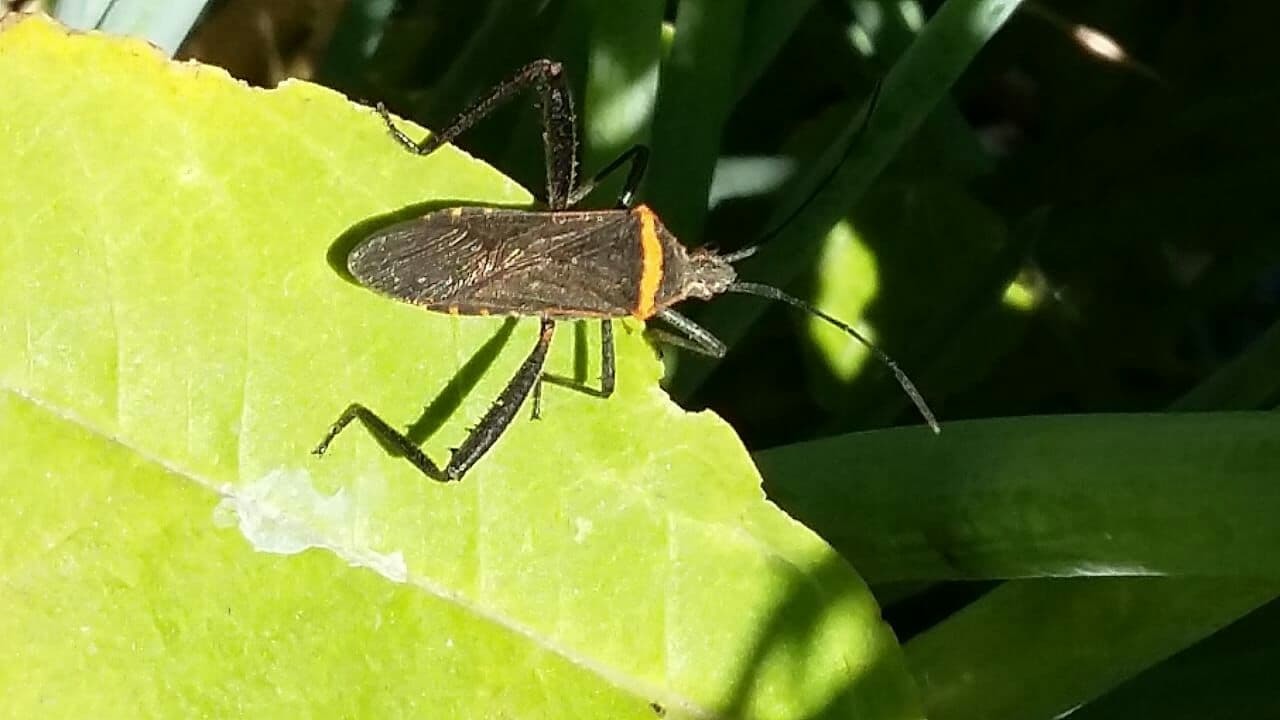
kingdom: Animalia
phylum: Arthropoda
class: Insecta
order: Hemiptera
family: Coreidae
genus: Phthiacnemia
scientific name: Phthiacnemia picta
